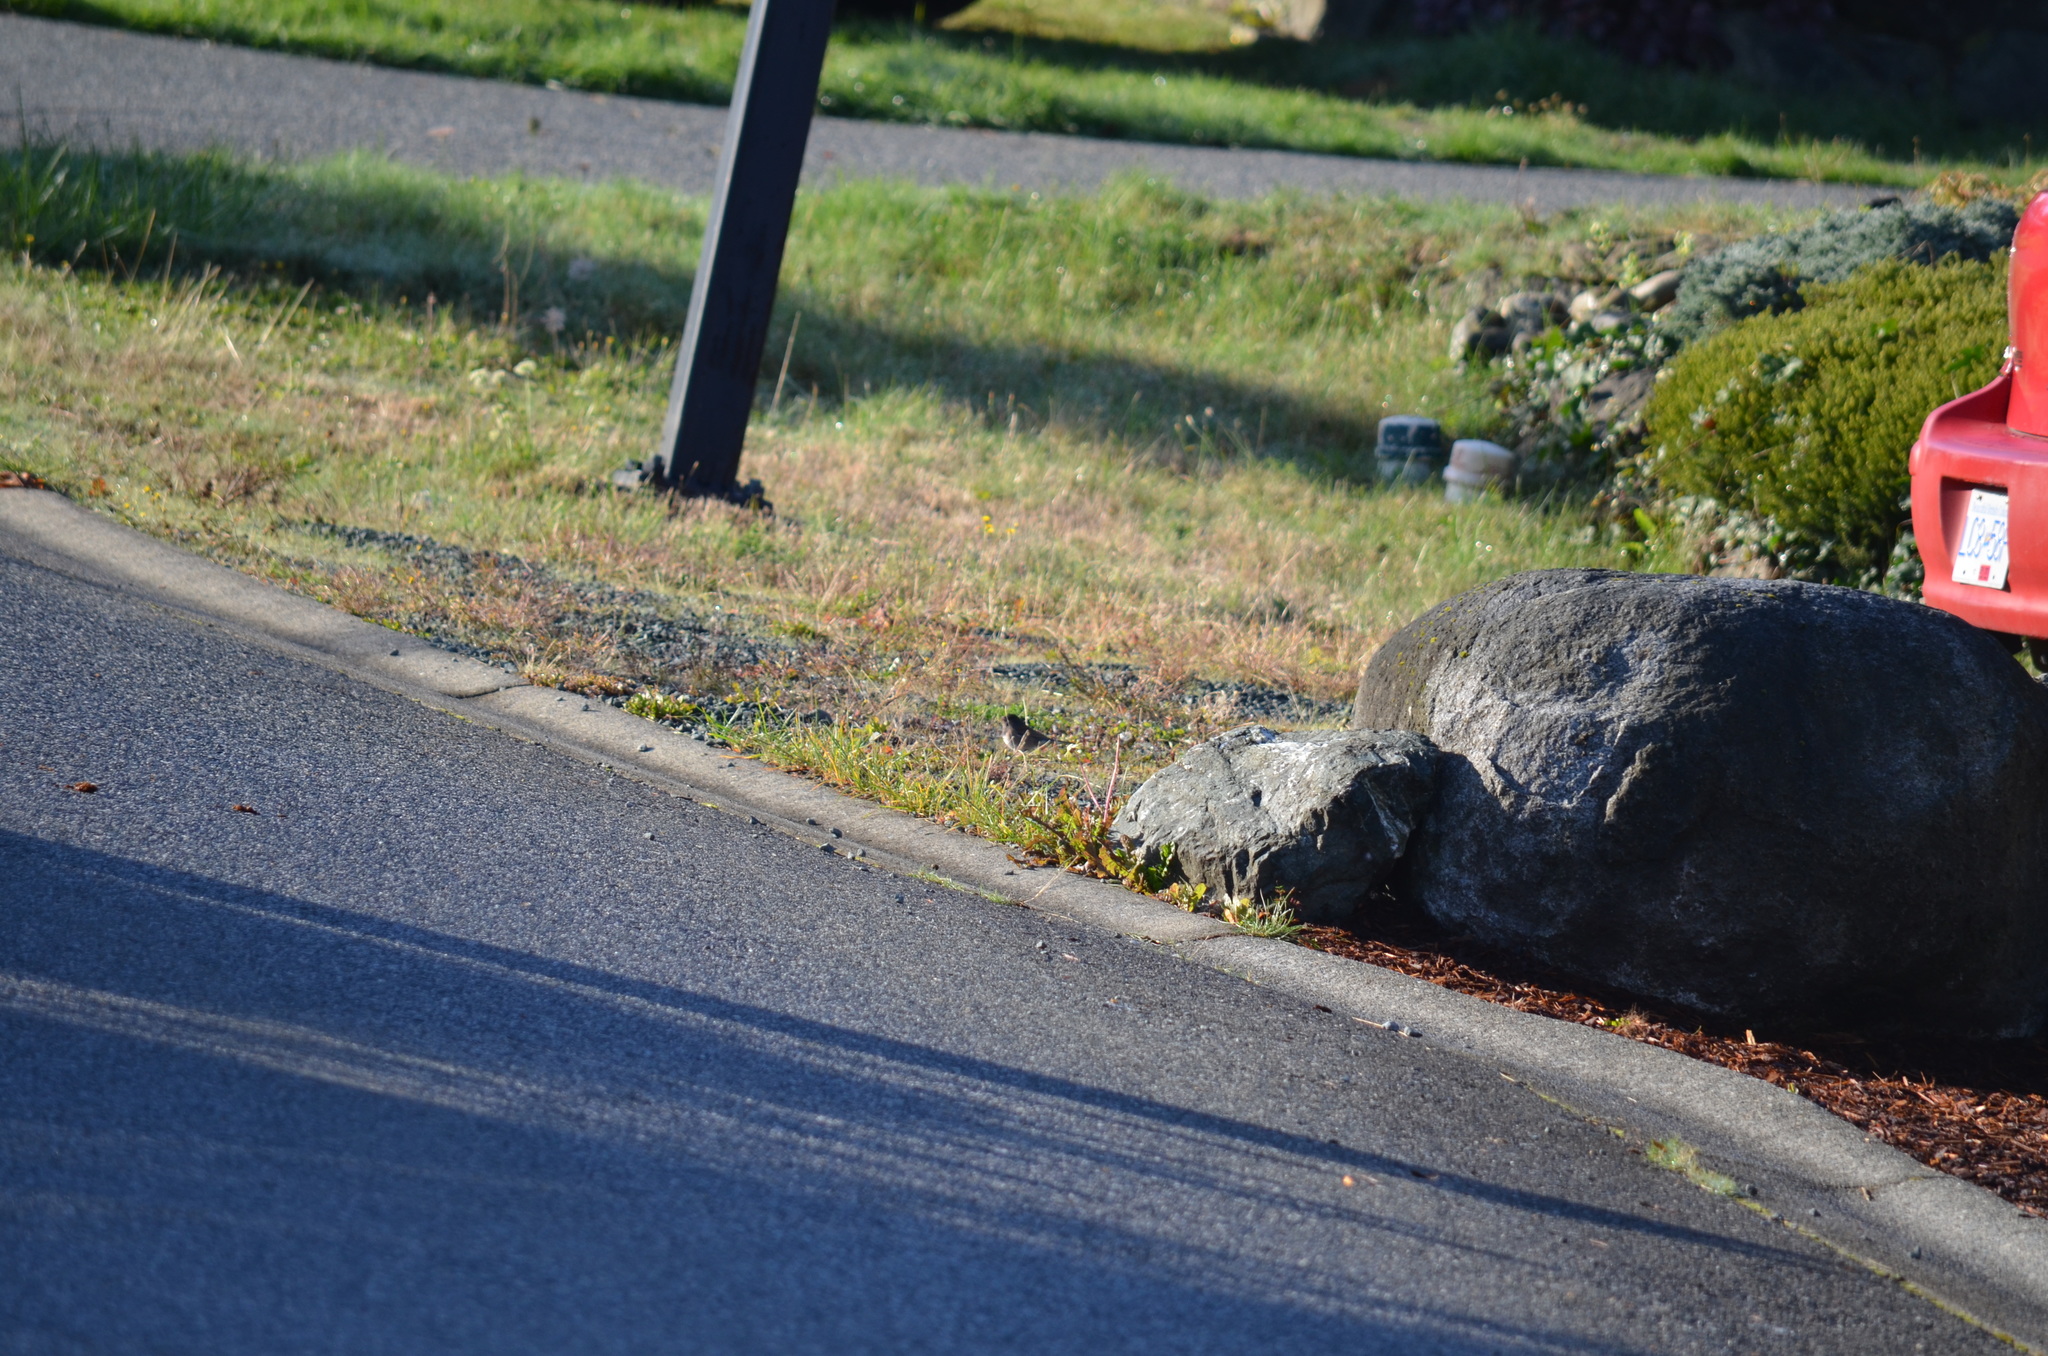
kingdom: Animalia
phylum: Chordata
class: Aves
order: Passeriformes
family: Passerellidae
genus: Junco
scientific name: Junco hyemalis
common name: Dark-eyed junco
